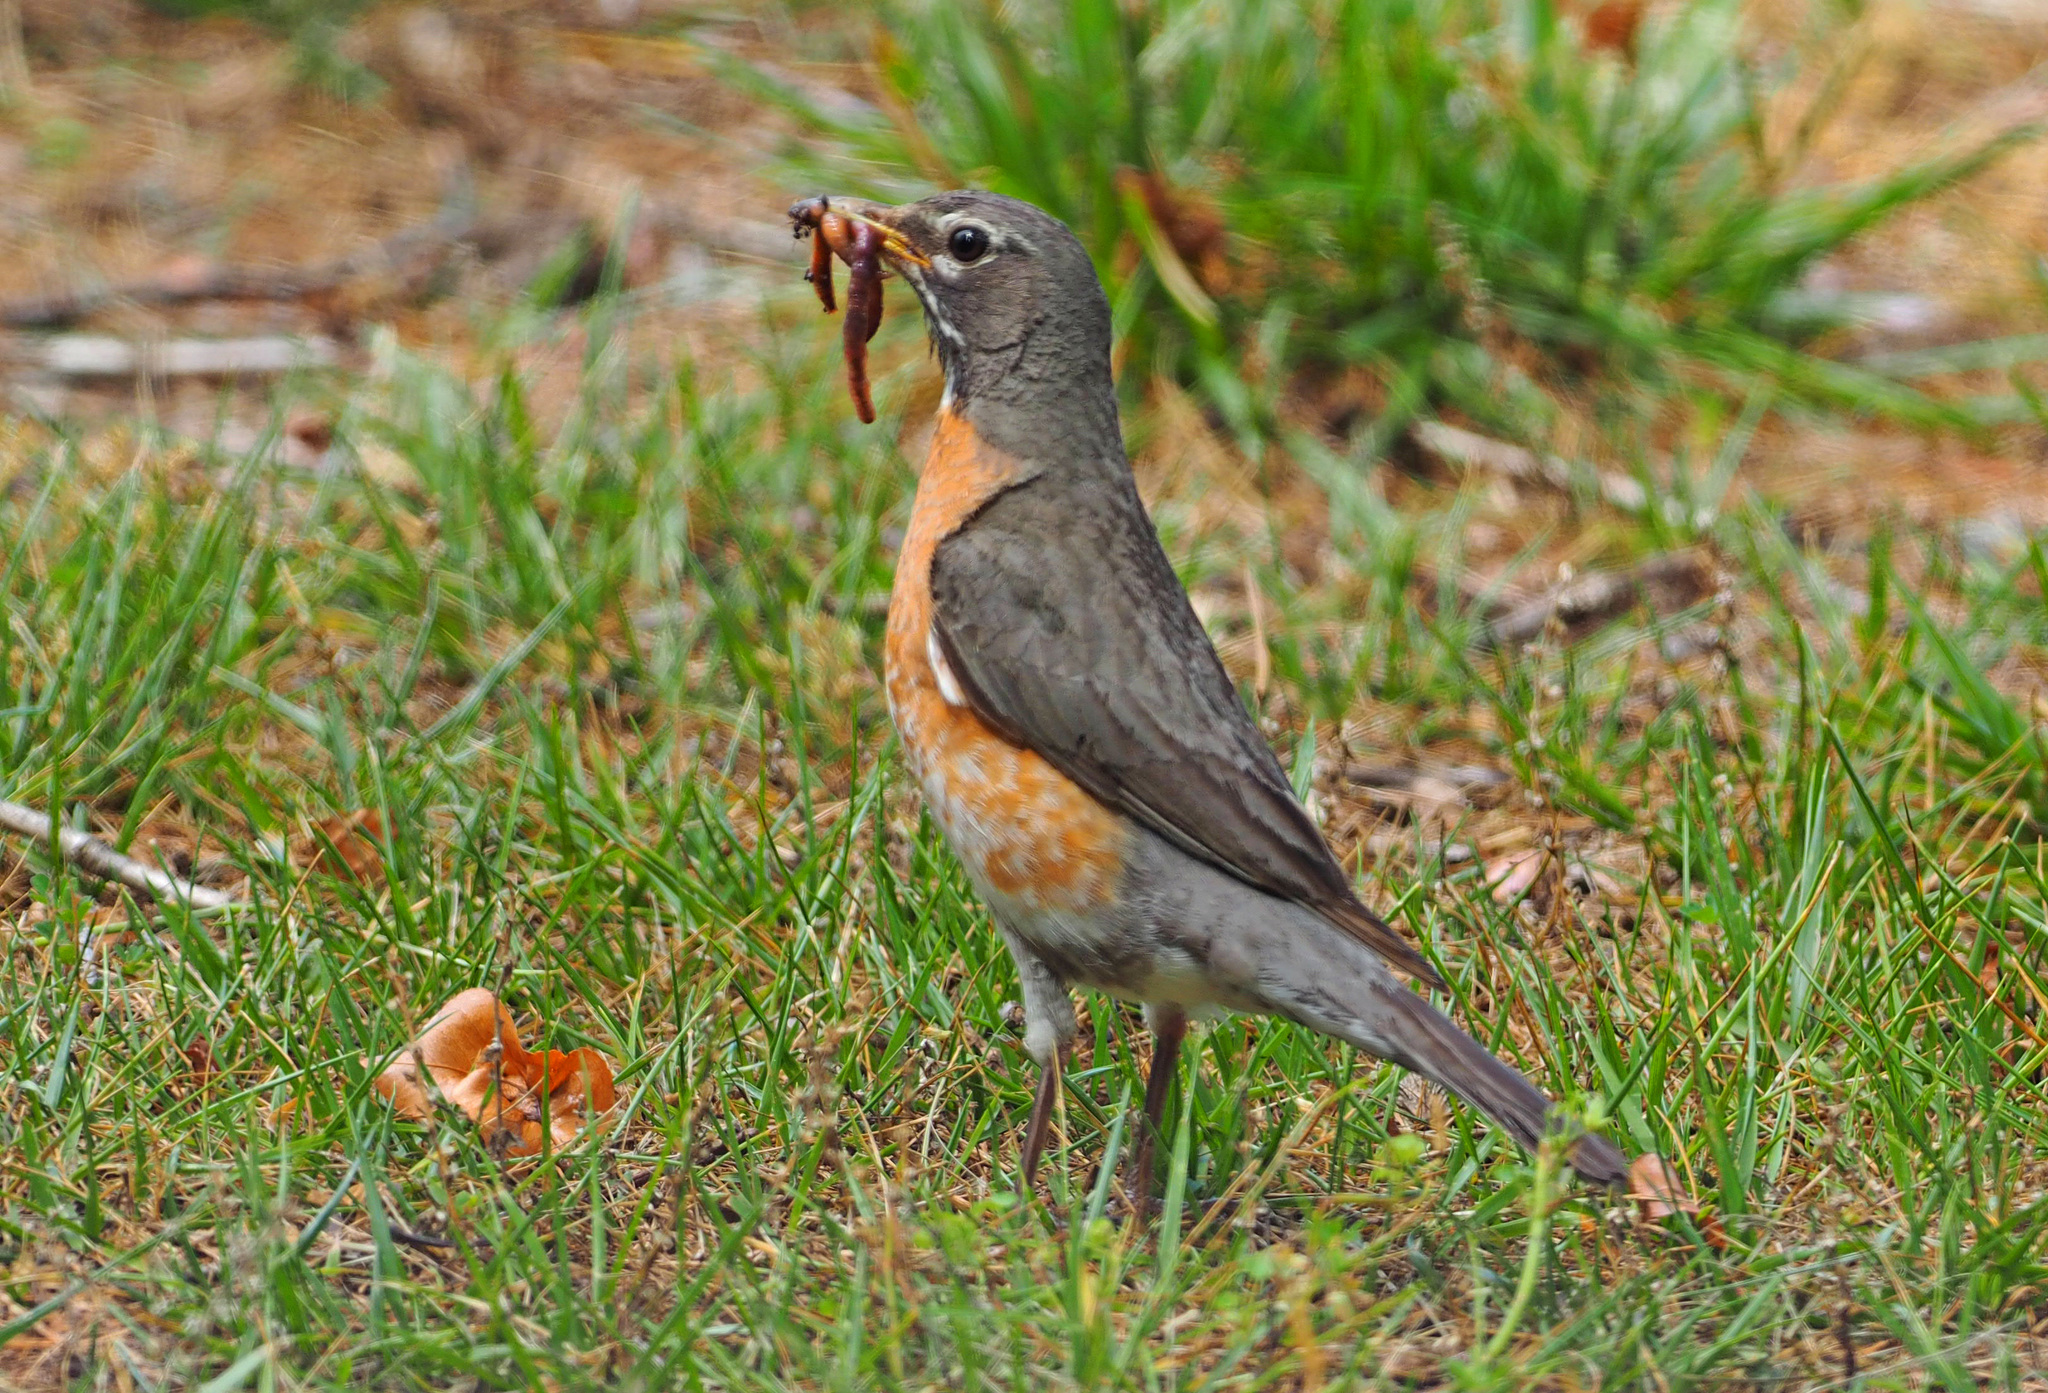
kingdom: Animalia
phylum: Chordata
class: Aves
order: Passeriformes
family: Turdidae
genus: Turdus
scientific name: Turdus migratorius
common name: American robin
